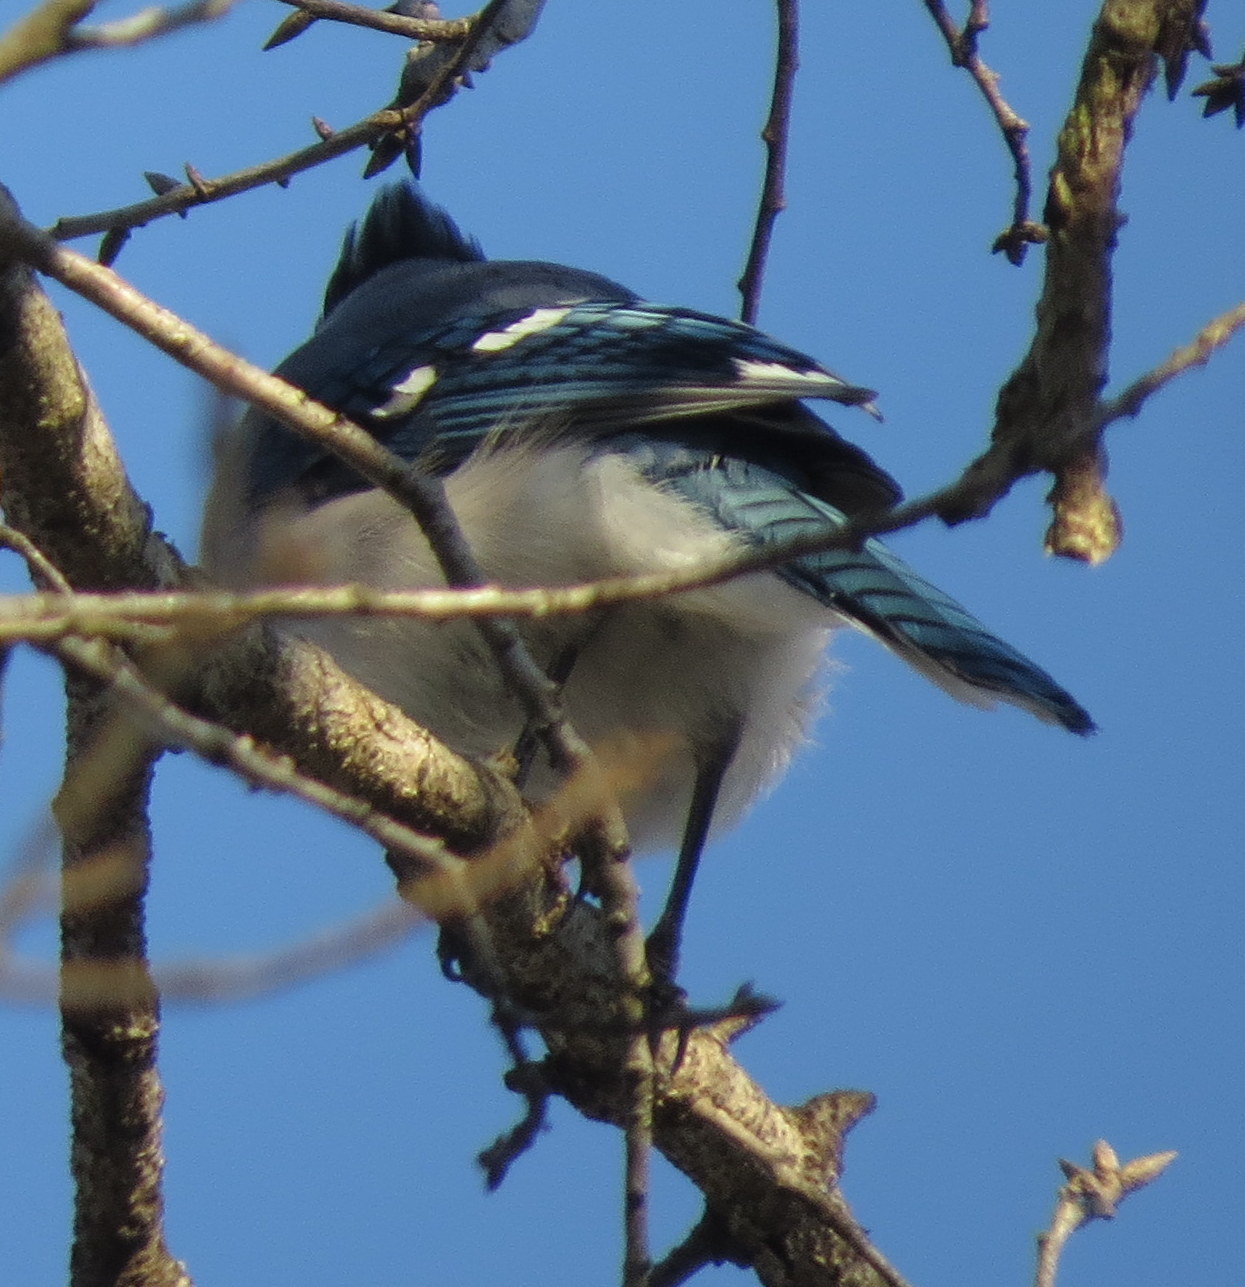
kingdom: Animalia
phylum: Chordata
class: Aves
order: Passeriformes
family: Corvidae
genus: Cyanocitta
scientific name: Cyanocitta cristata
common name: Blue jay
